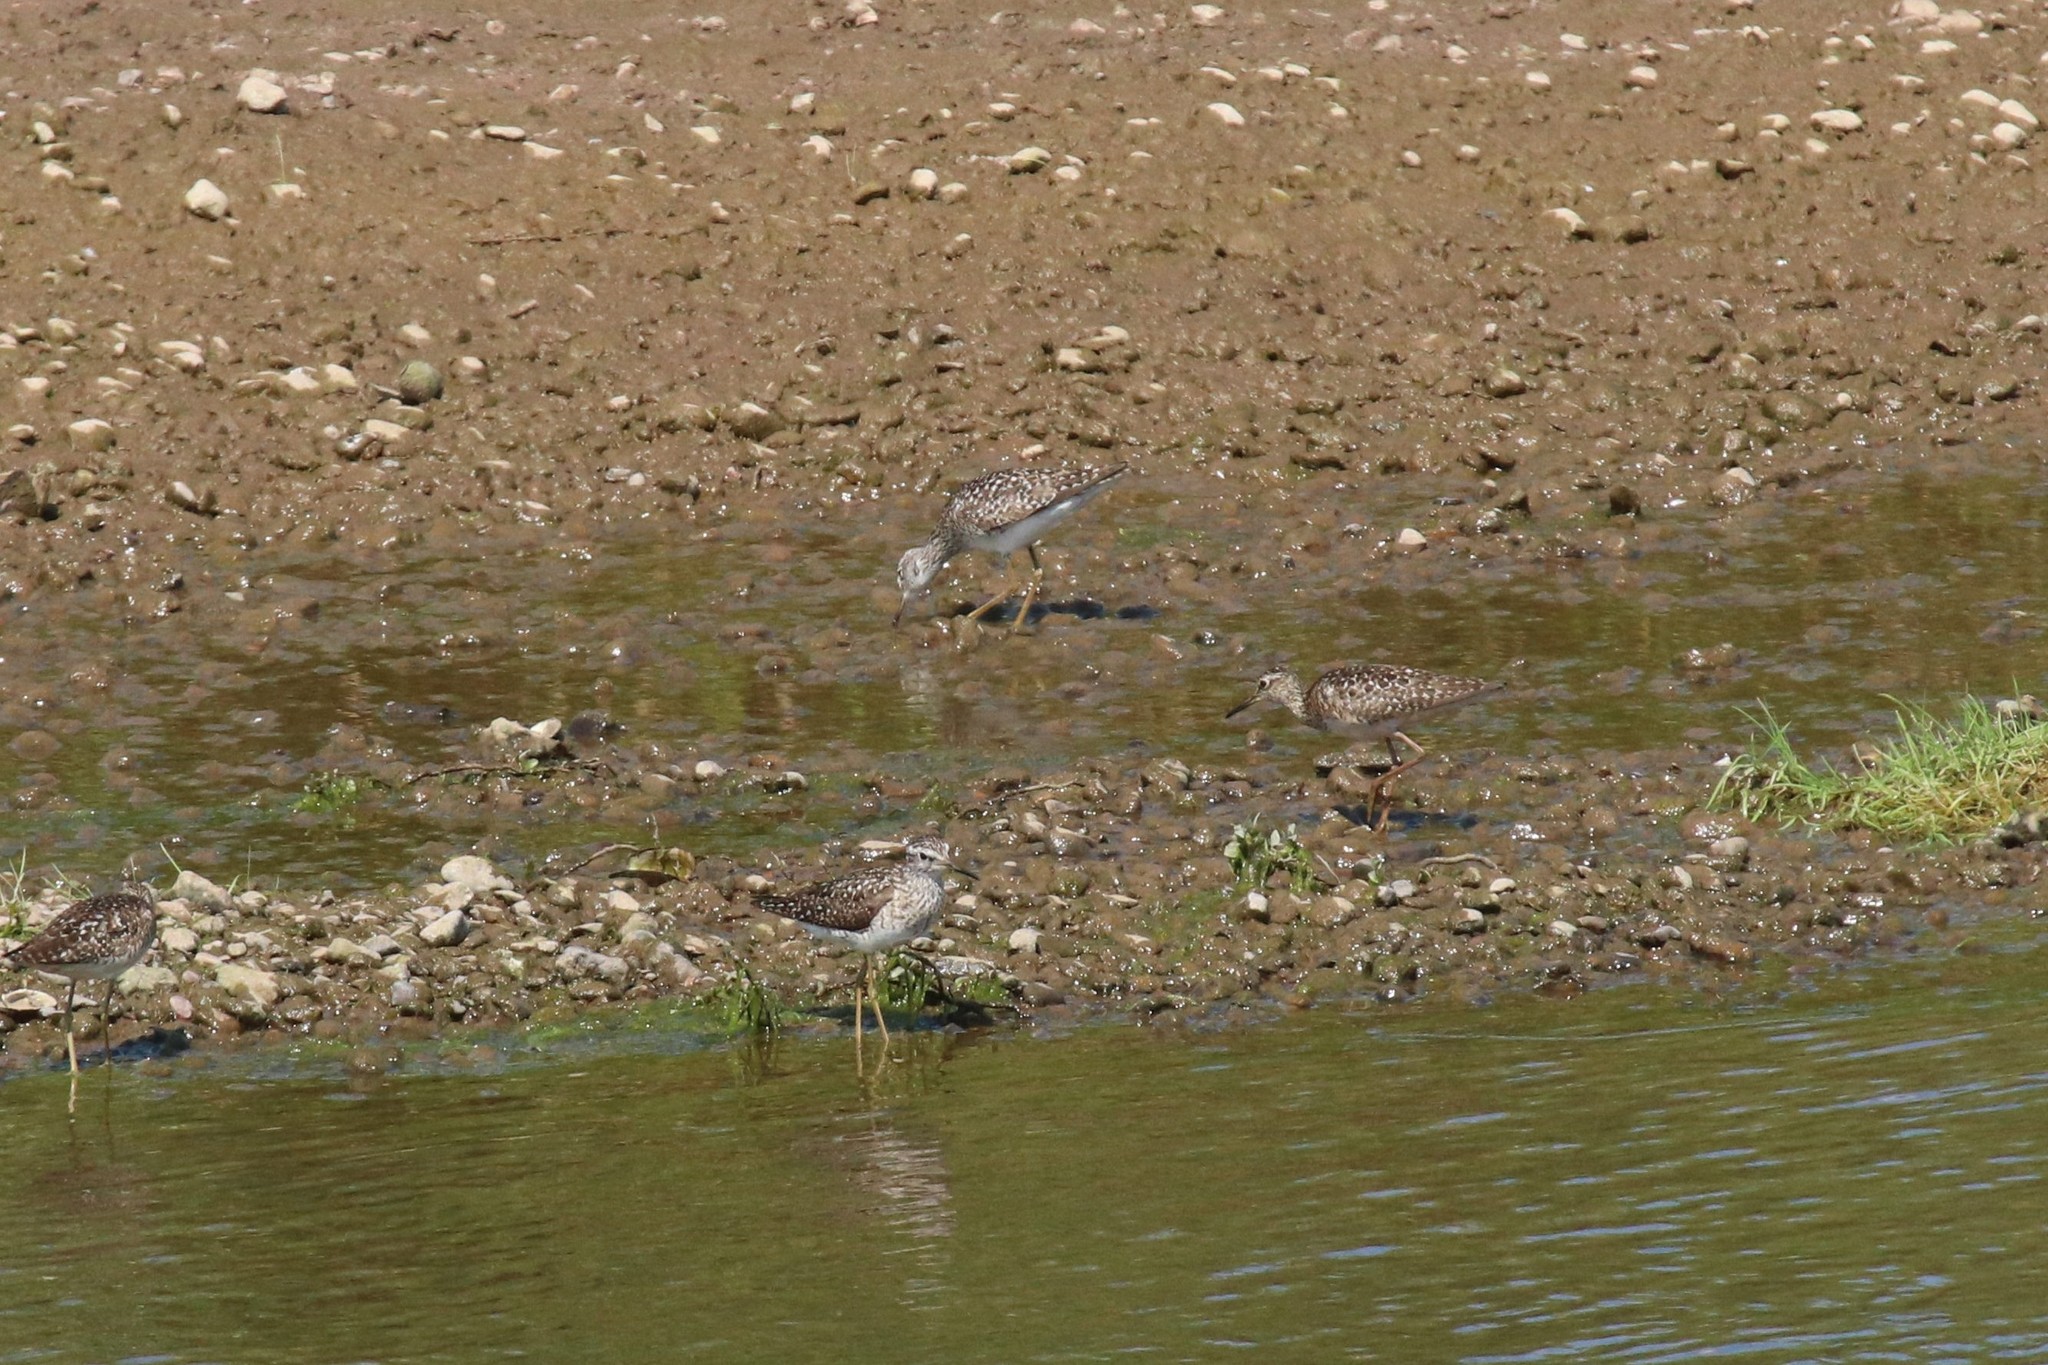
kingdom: Animalia
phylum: Chordata
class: Aves
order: Charadriiformes
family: Scolopacidae
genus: Tringa
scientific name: Tringa glareola
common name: Wood sandpiper
